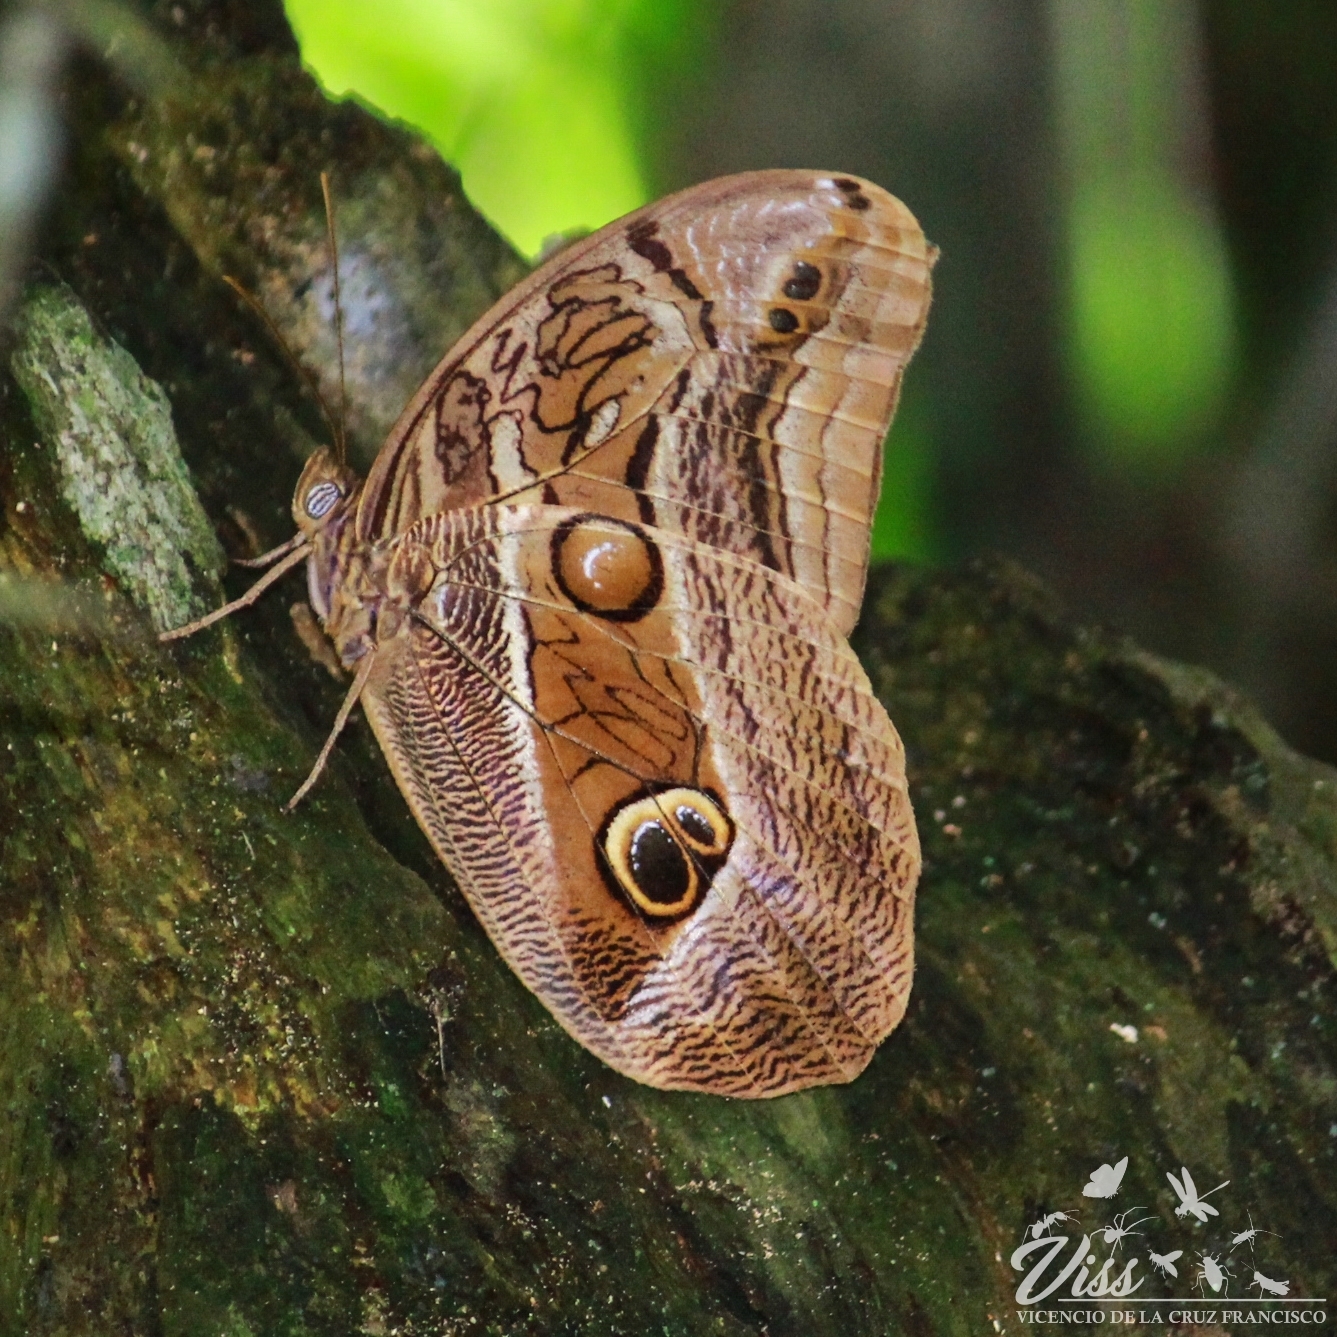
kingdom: Animalia
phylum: Arthropoda
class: Insecta
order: Lepidoptera
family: Nymphalidae
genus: Eryphanis
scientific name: Eryphanis aesacus
